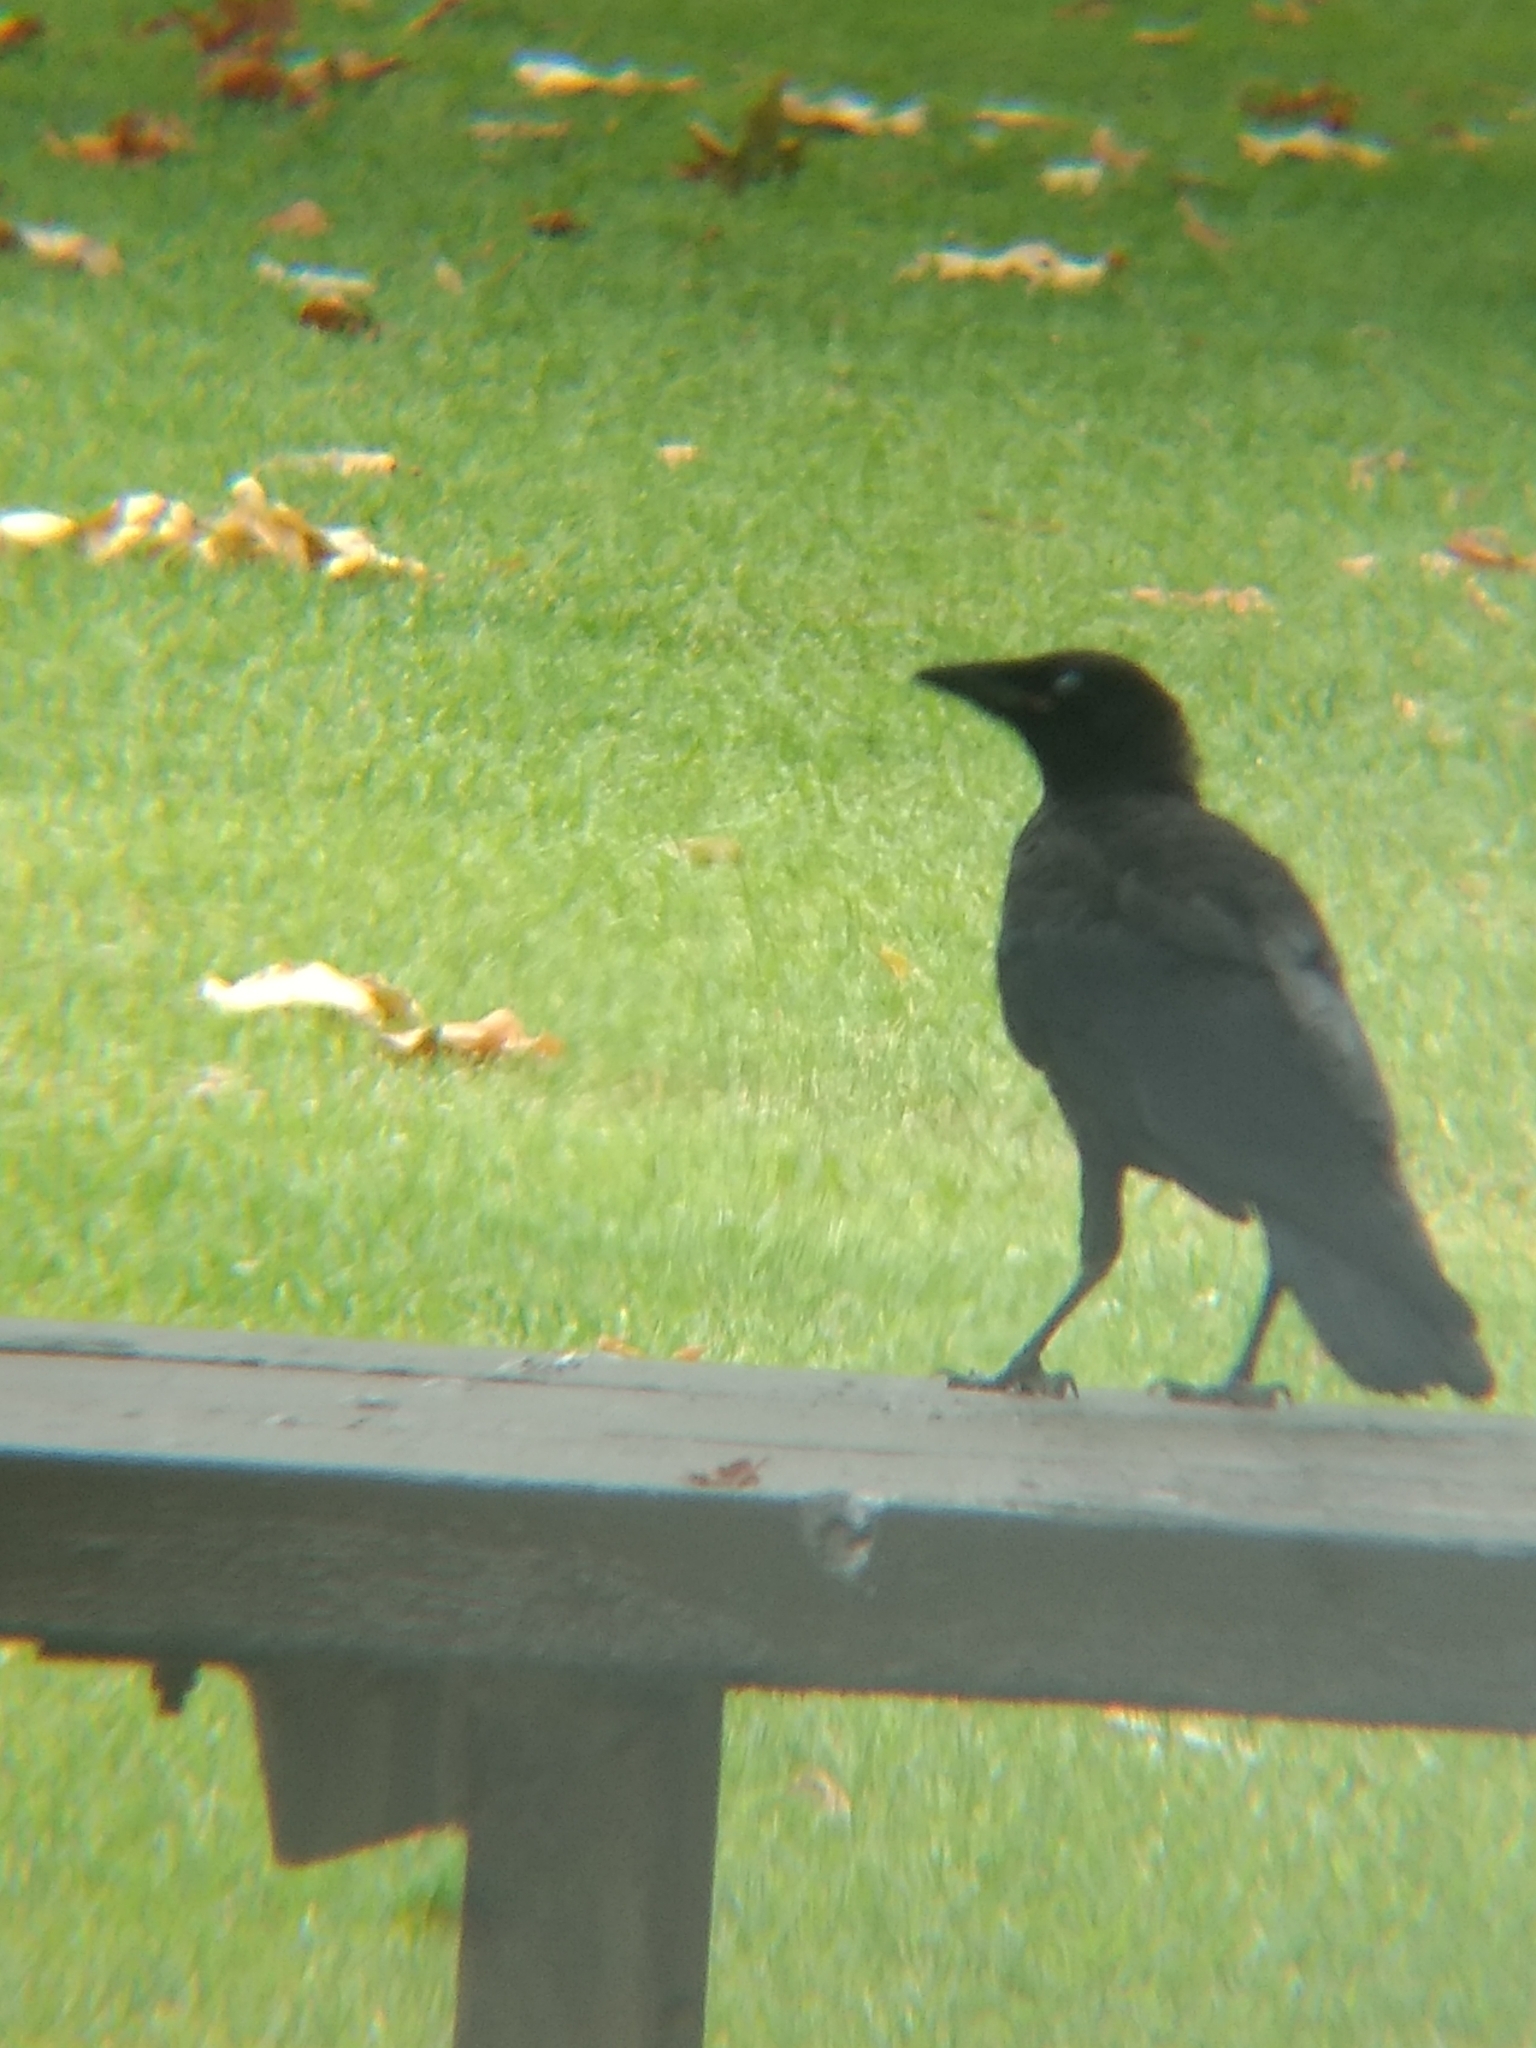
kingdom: Animalia
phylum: Chordata
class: Aves
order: Passeriformes
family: Corvidae
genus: Corvus
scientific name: Corvus brachyrhynchos
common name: American crow
